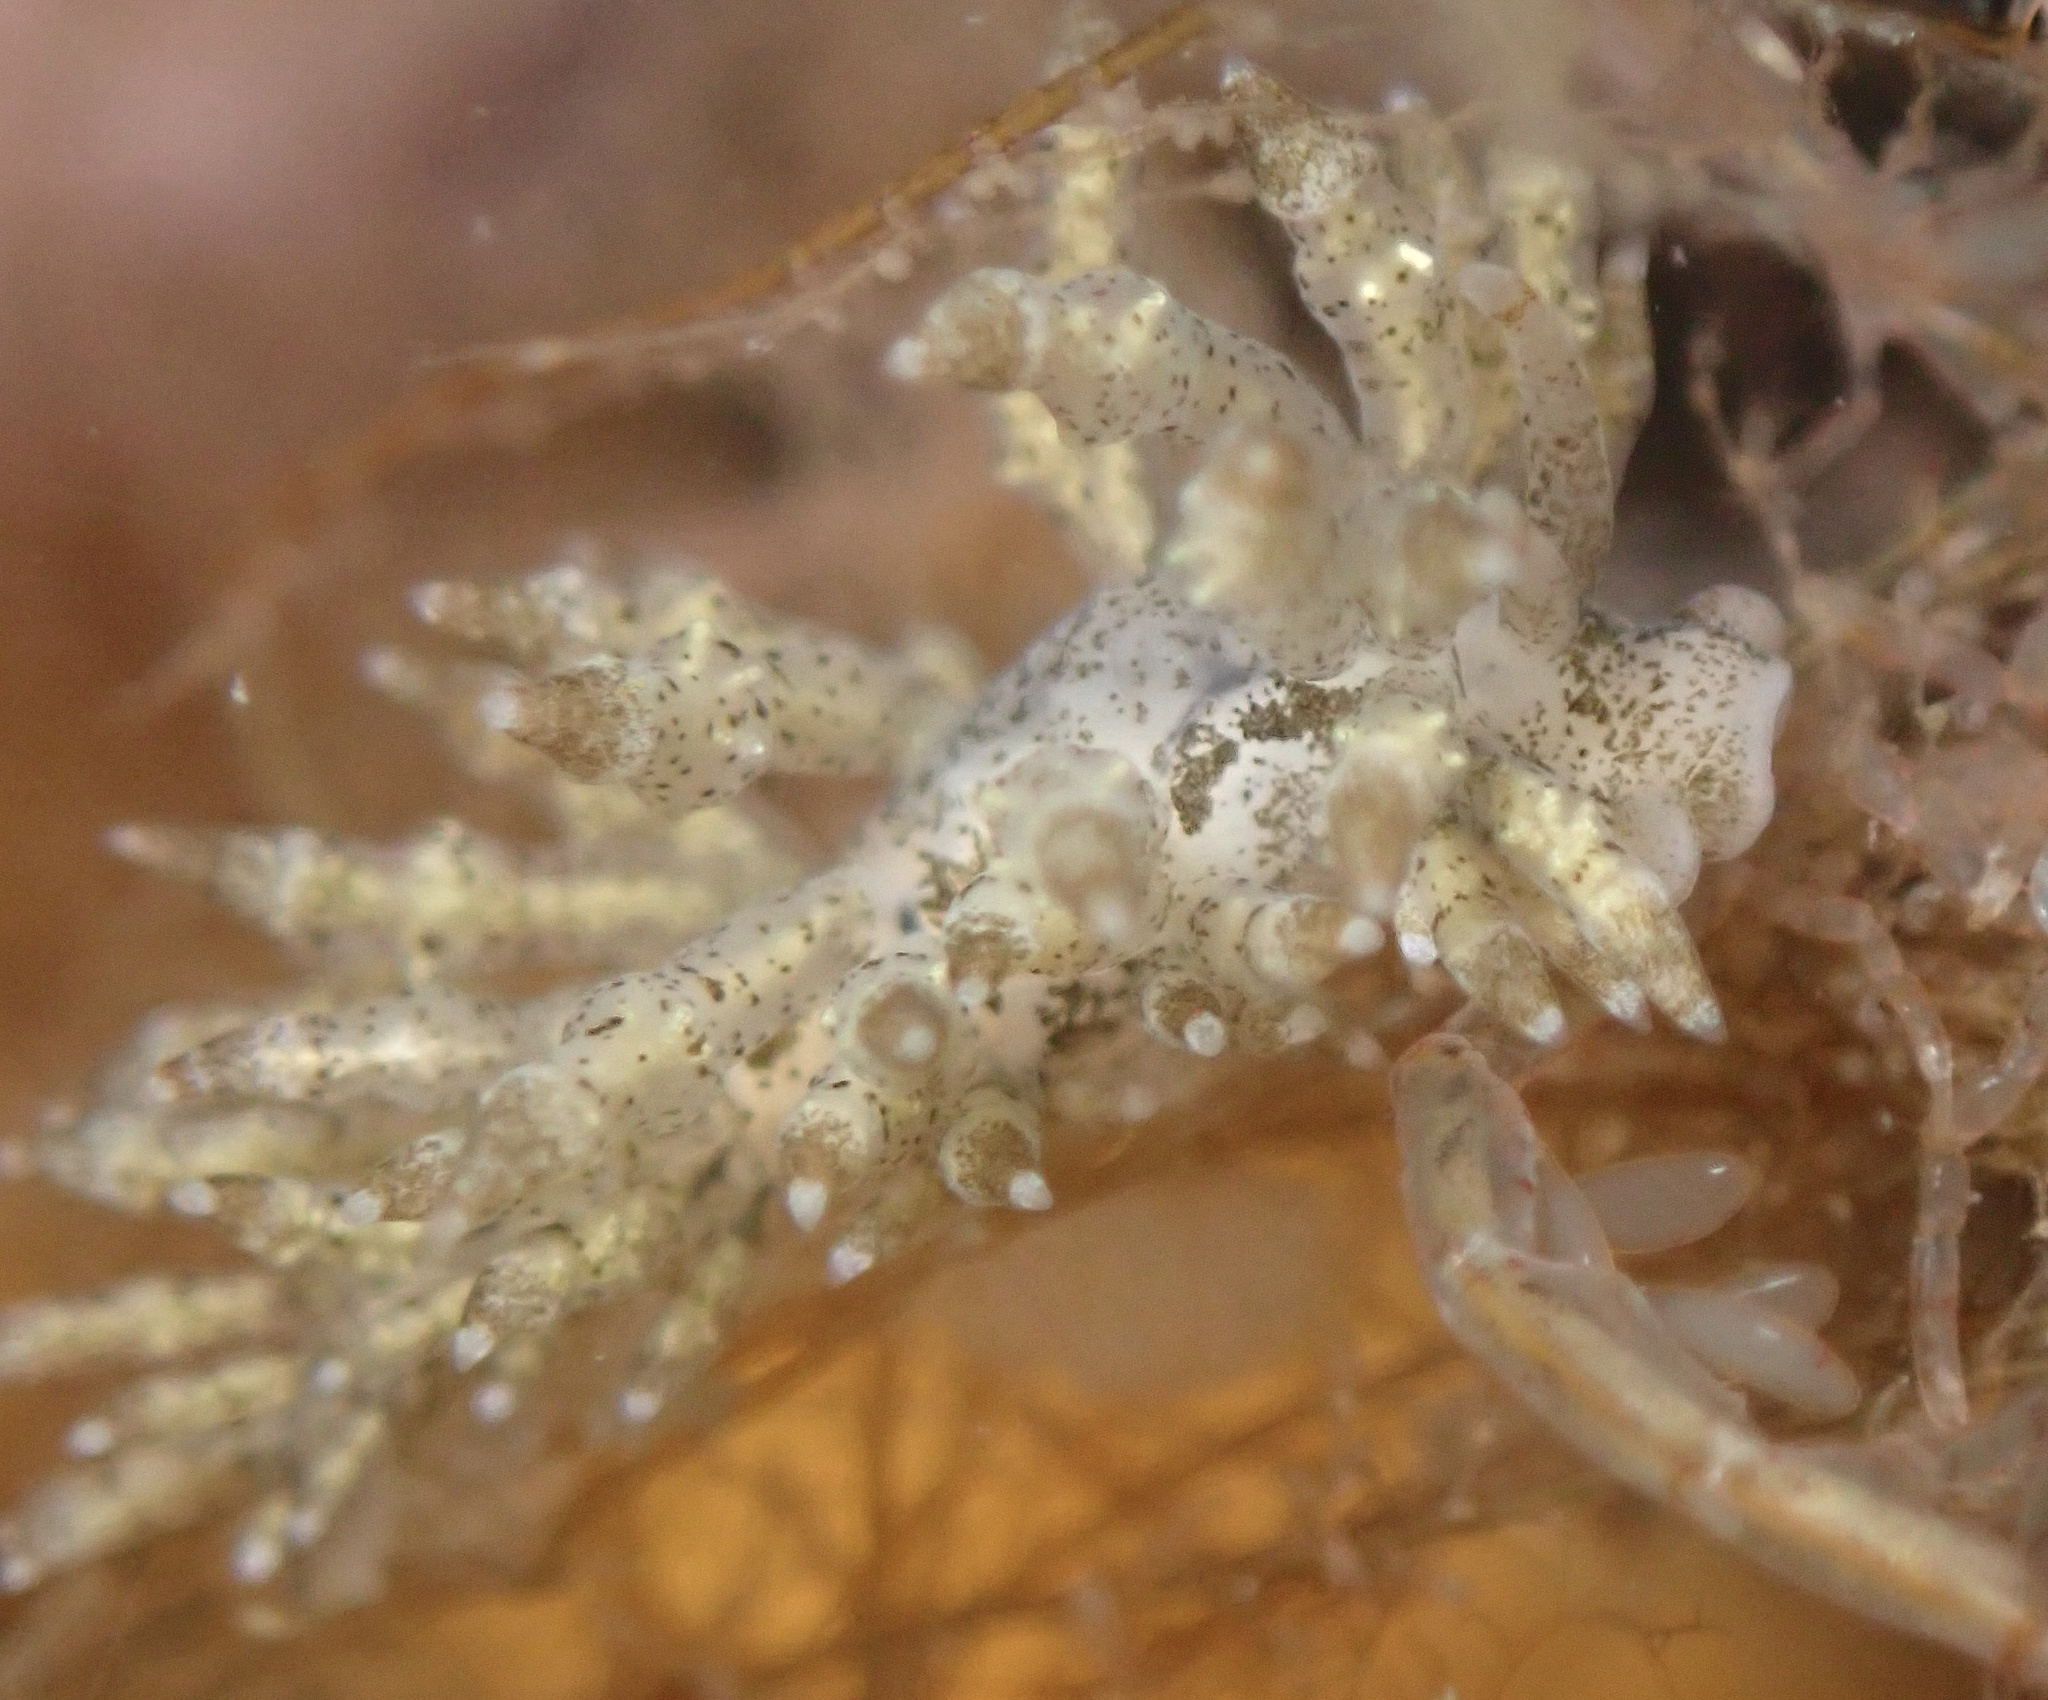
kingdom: Animalia
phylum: Mollusca
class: Gastropoda
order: Nudibranchia
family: Eubranchidae
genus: Eubranchus
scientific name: Eubranchus rustyus
